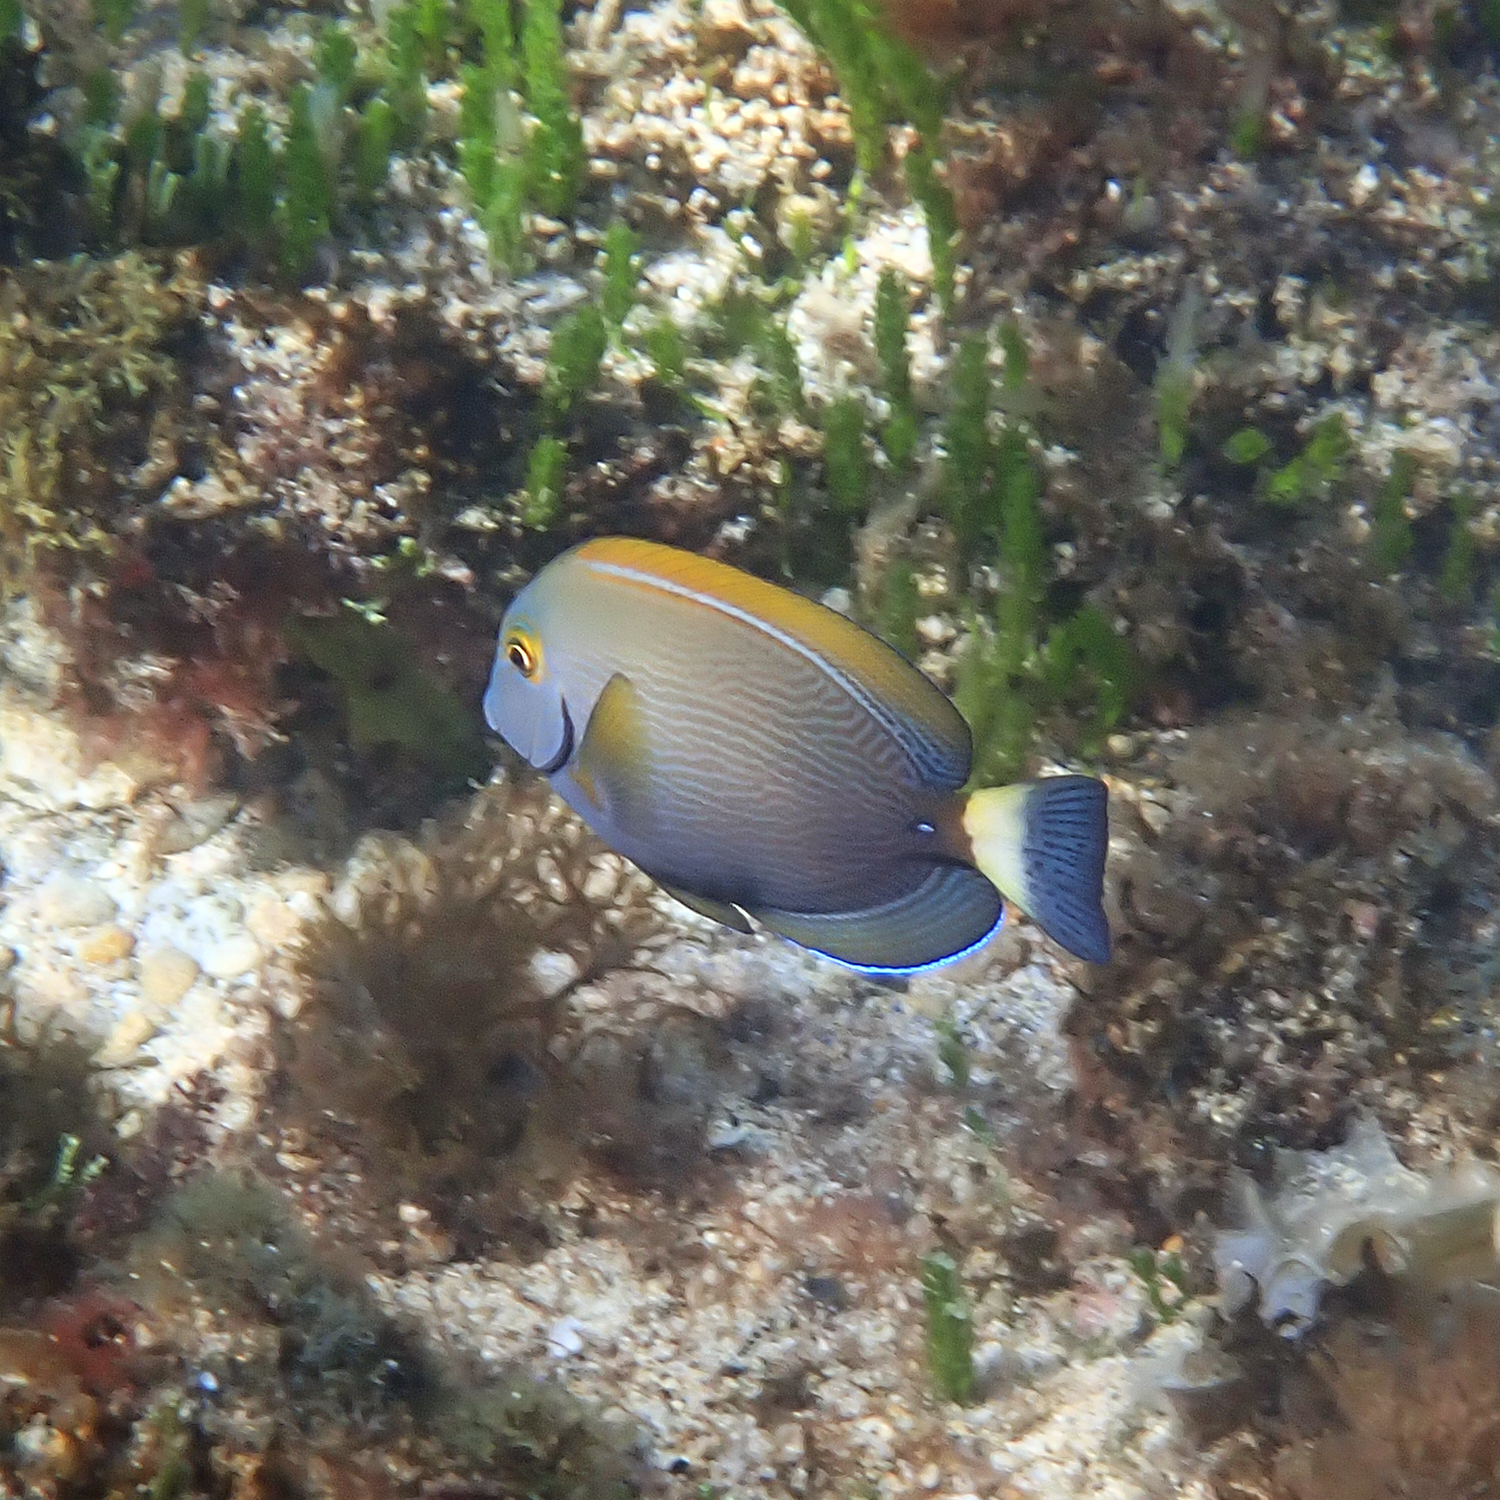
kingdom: Animalia
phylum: Chordata
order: Perciformes
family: Acanthuridae
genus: Acanthurus
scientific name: Acanthurus dussumieri
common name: Dussumier's surgeonfish
